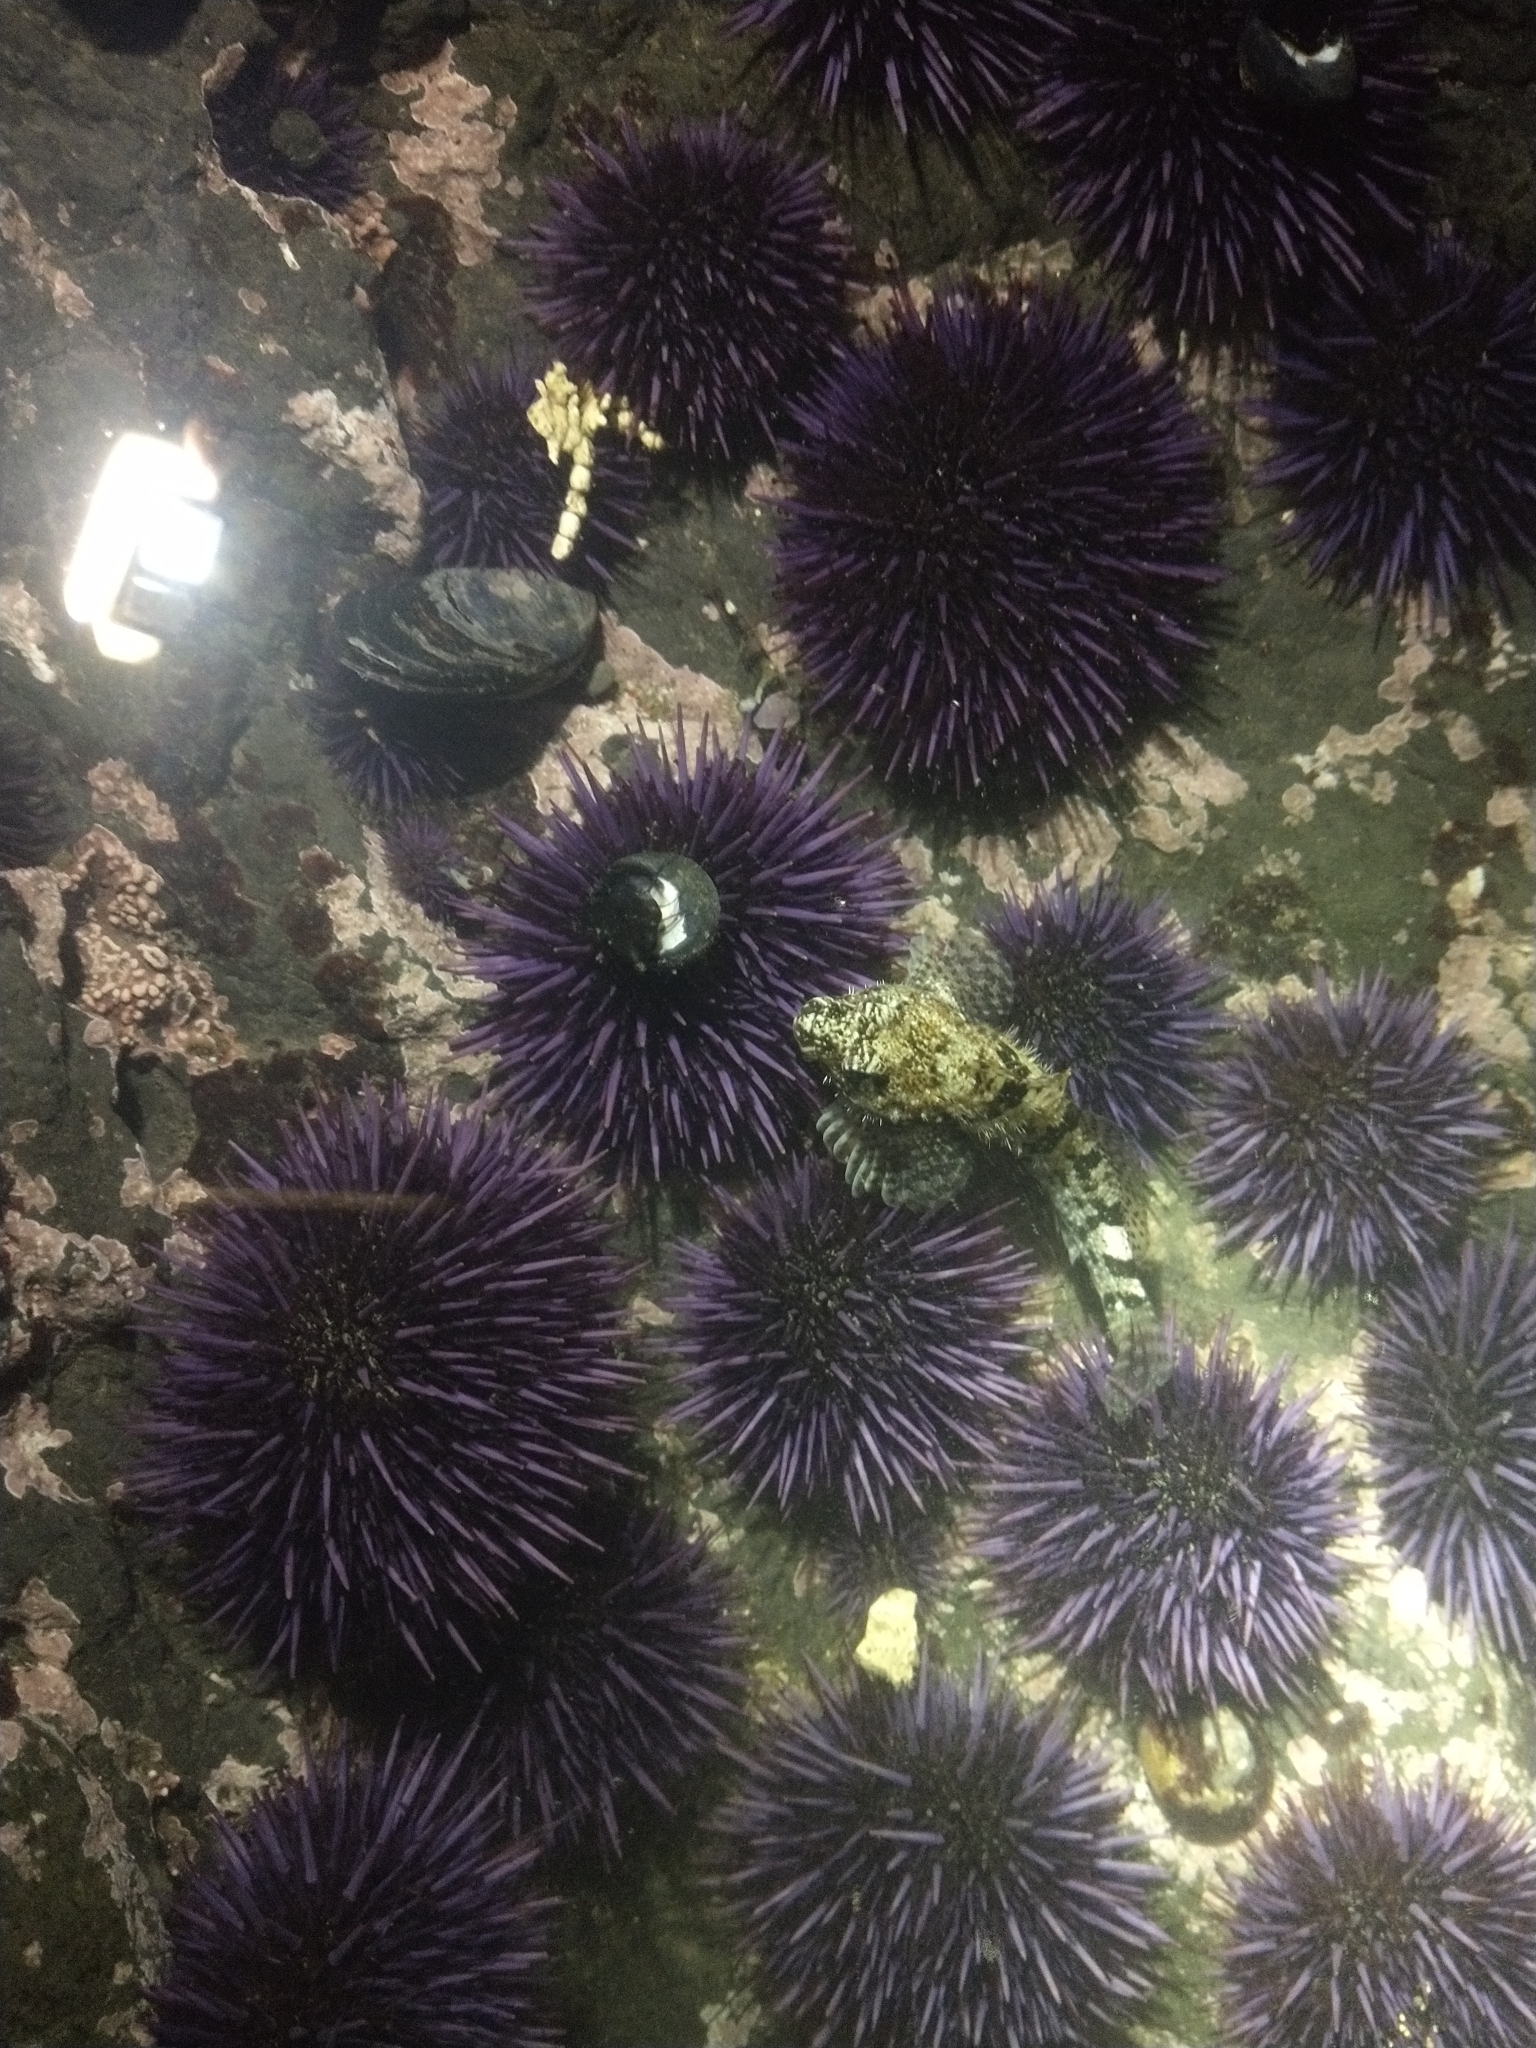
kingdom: Animalia
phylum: Chordata
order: Scorpaeniformes
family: Cottidae
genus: Clinocottus
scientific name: Clinocottus analis
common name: Woolly sculpin
